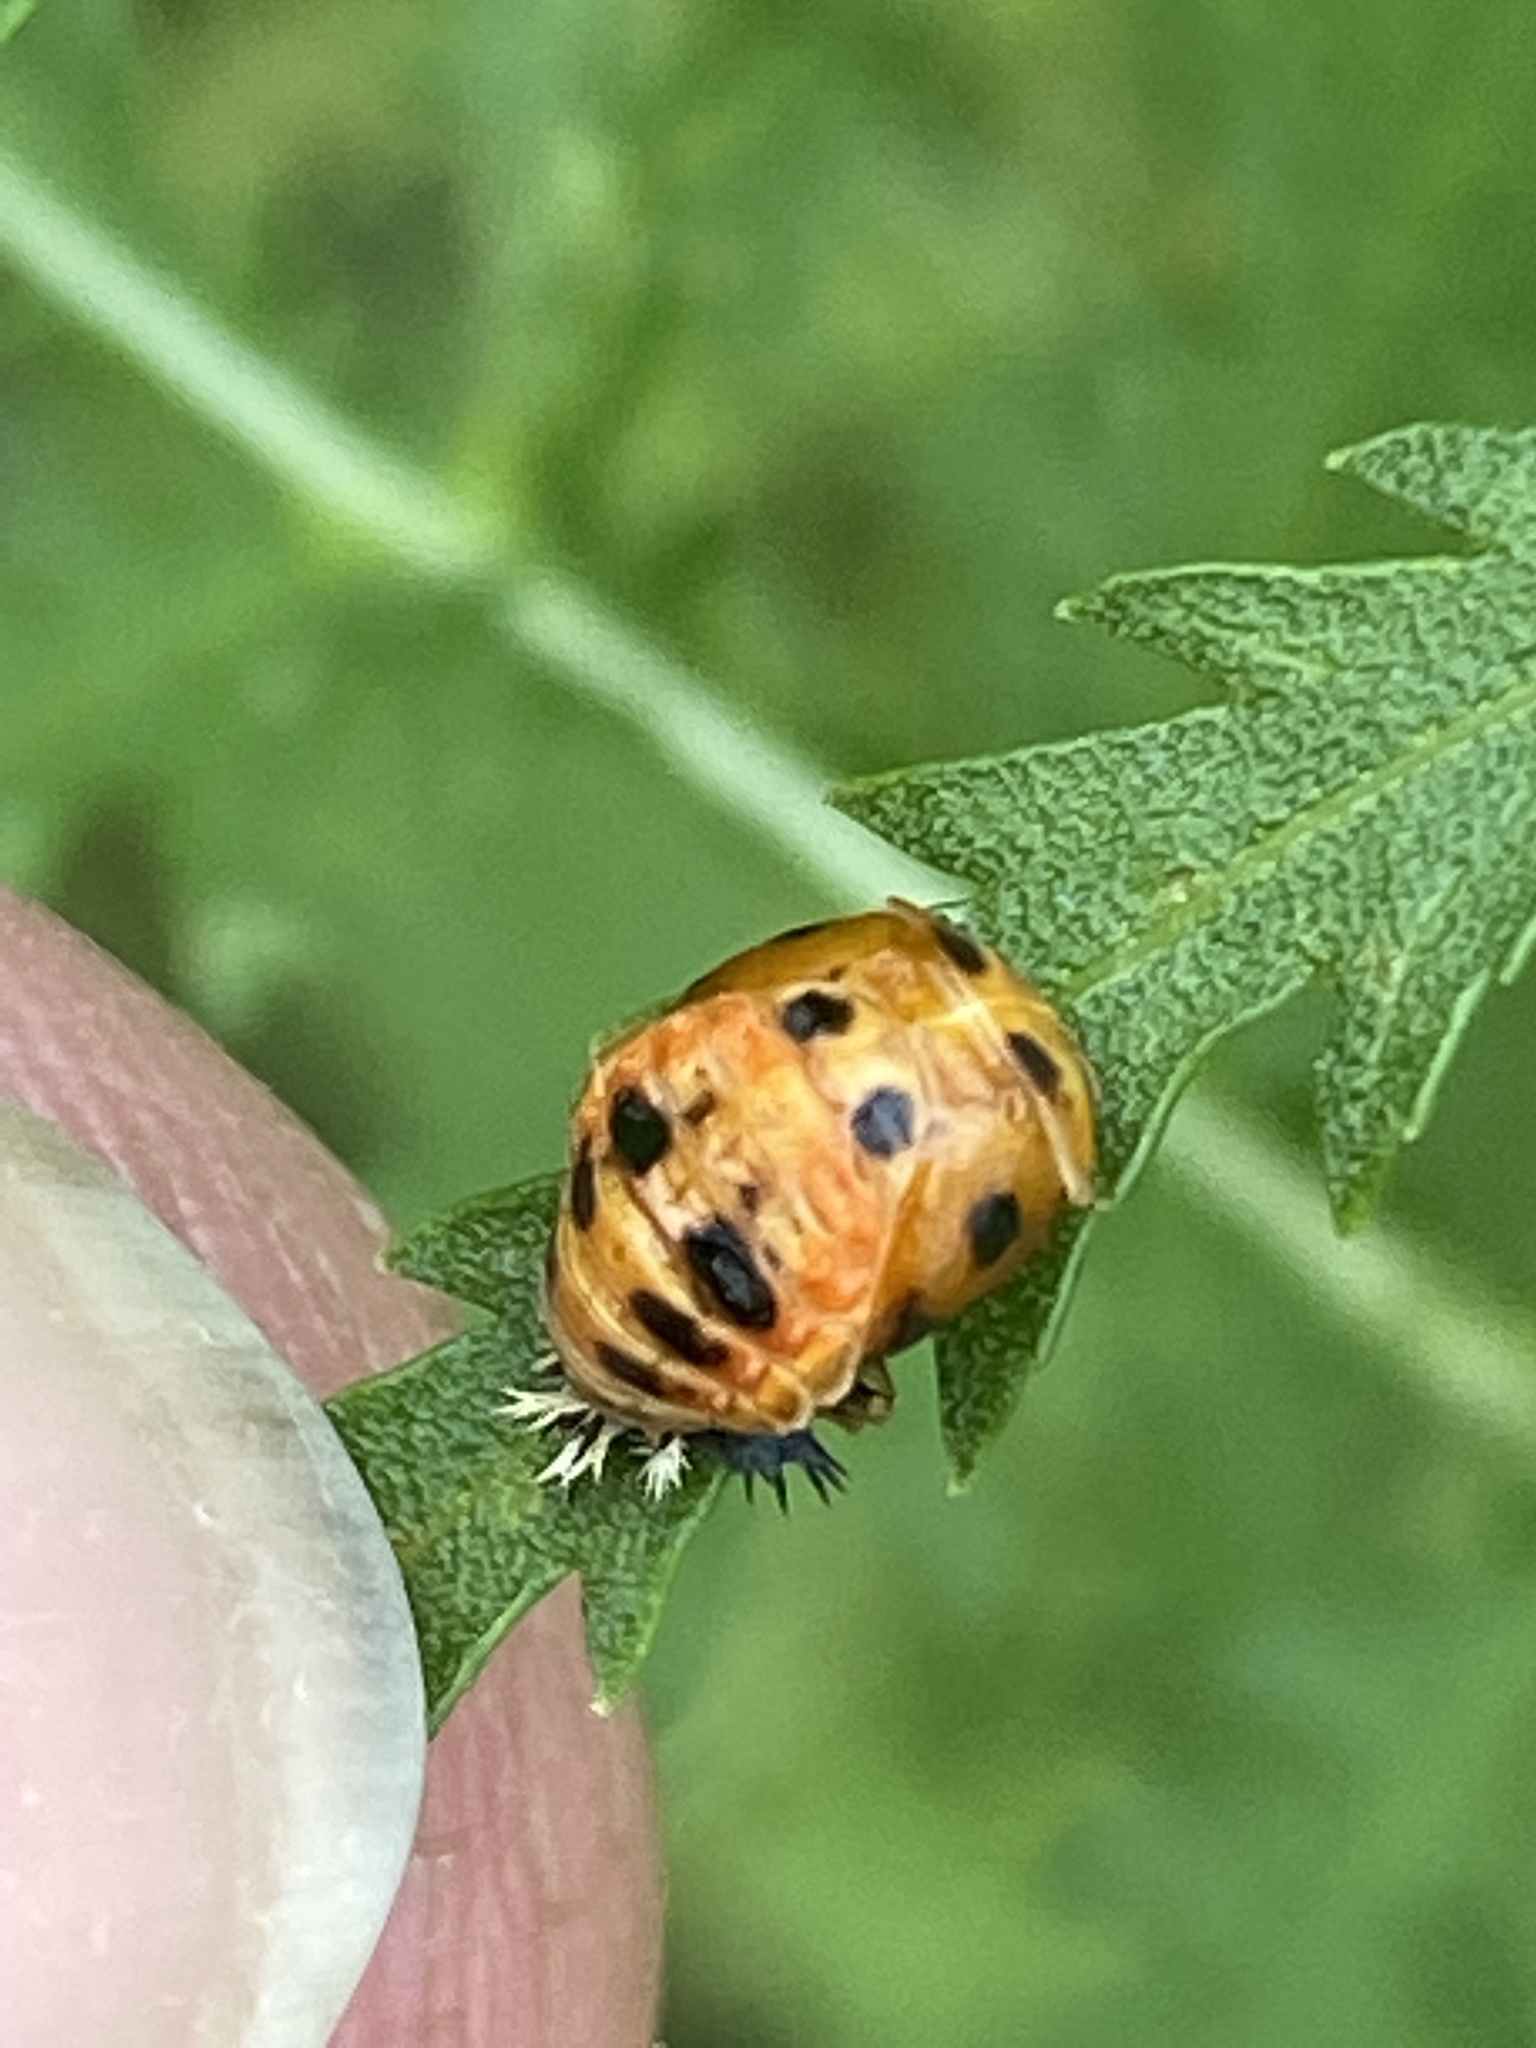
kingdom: Animalia
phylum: Arthropoda
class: Insecta
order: Coleoptera
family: Coccinellidae
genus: Harmonia
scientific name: Harmonia axyridis
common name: Harlequin ladybird
